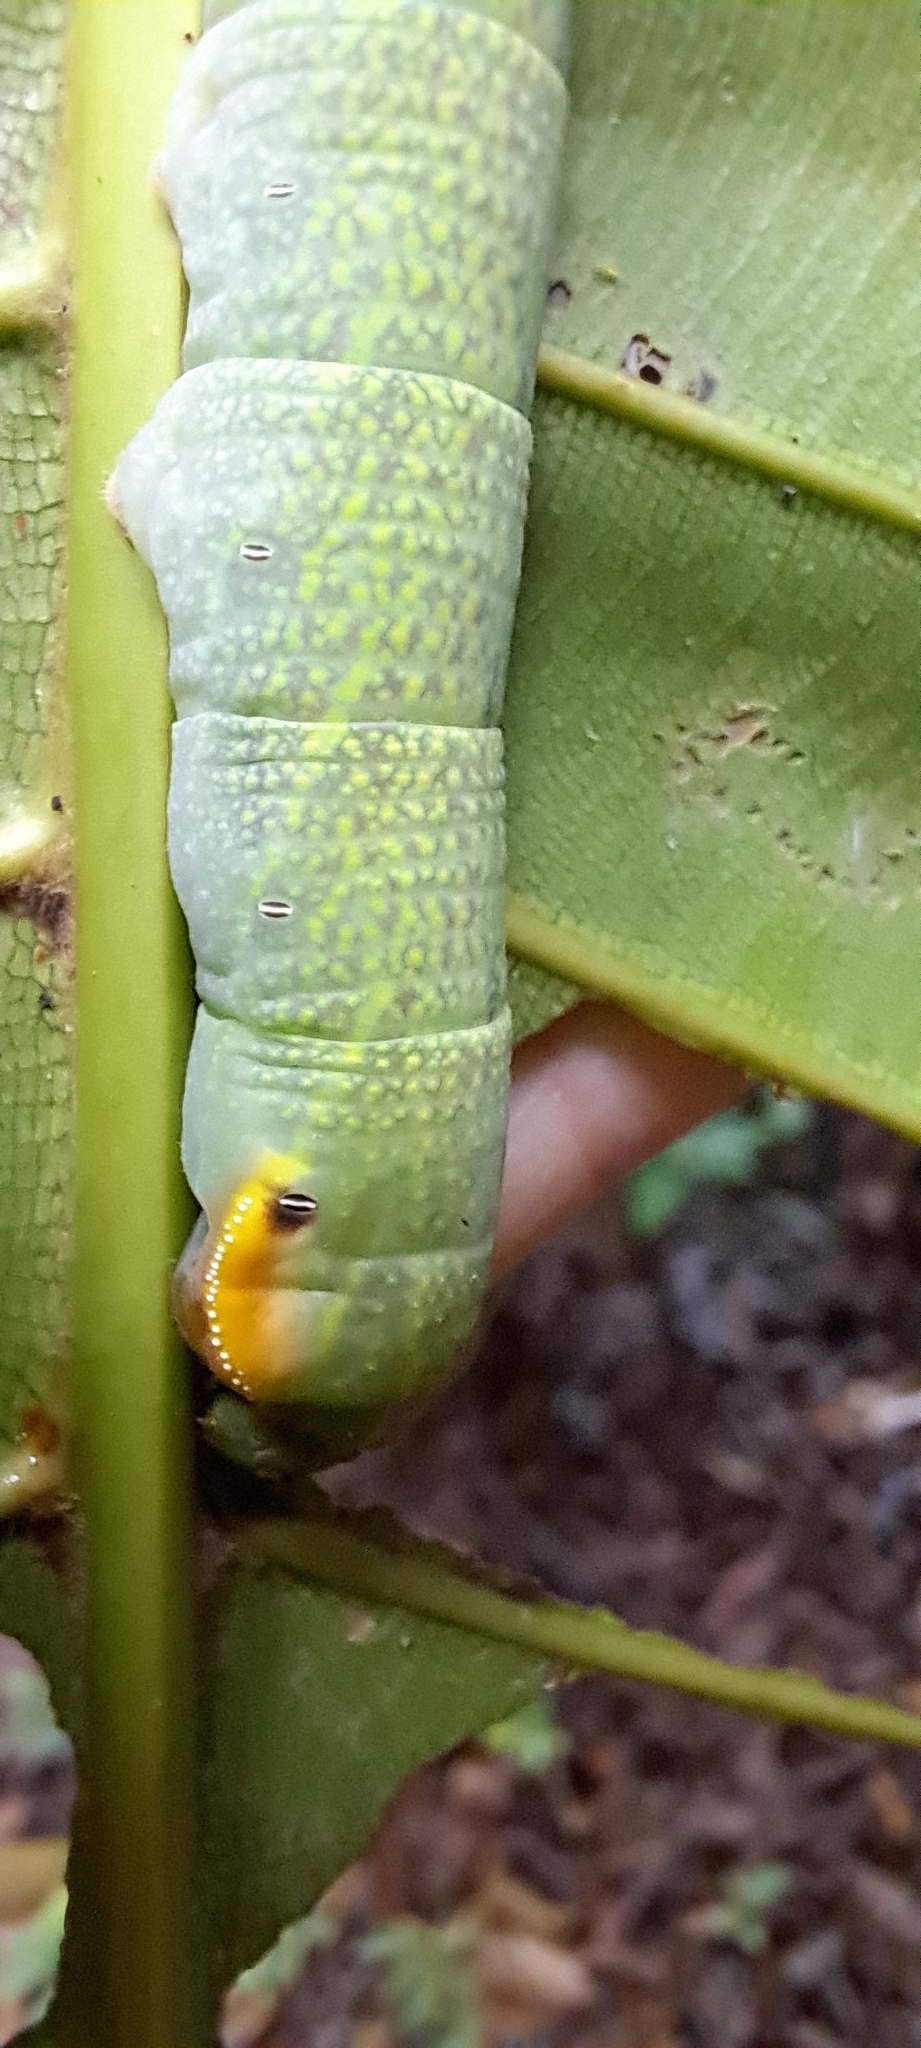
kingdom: Animalia
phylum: Arthropoda
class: Insecta
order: Lepidoptera
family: Sphingidae
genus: Enpinanga
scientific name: Enpinanga borneensis
